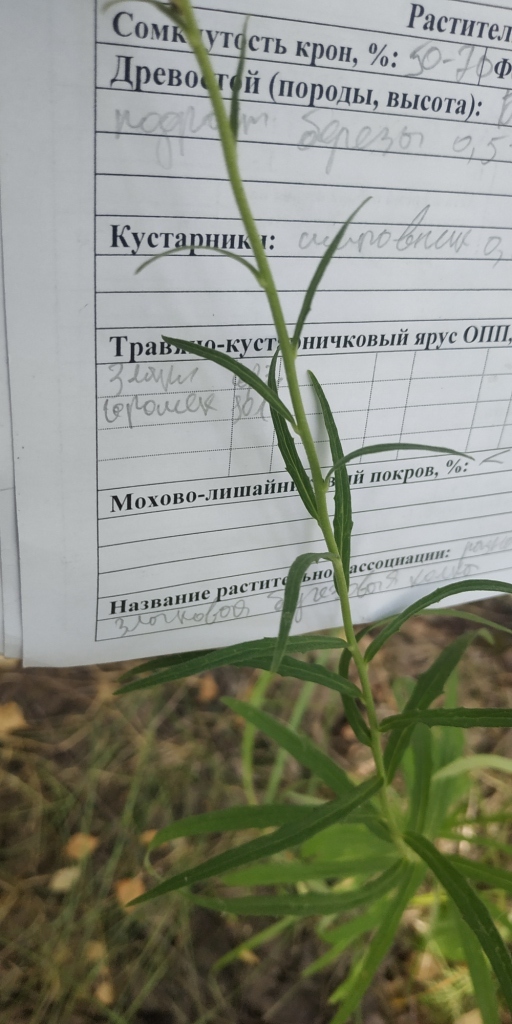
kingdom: Plantae
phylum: Tracheophyta
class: Magnoliopsida
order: Asterales
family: Asteraceae
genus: Hieracium
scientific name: Hieracium umbellatum
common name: Northern hawkweed
